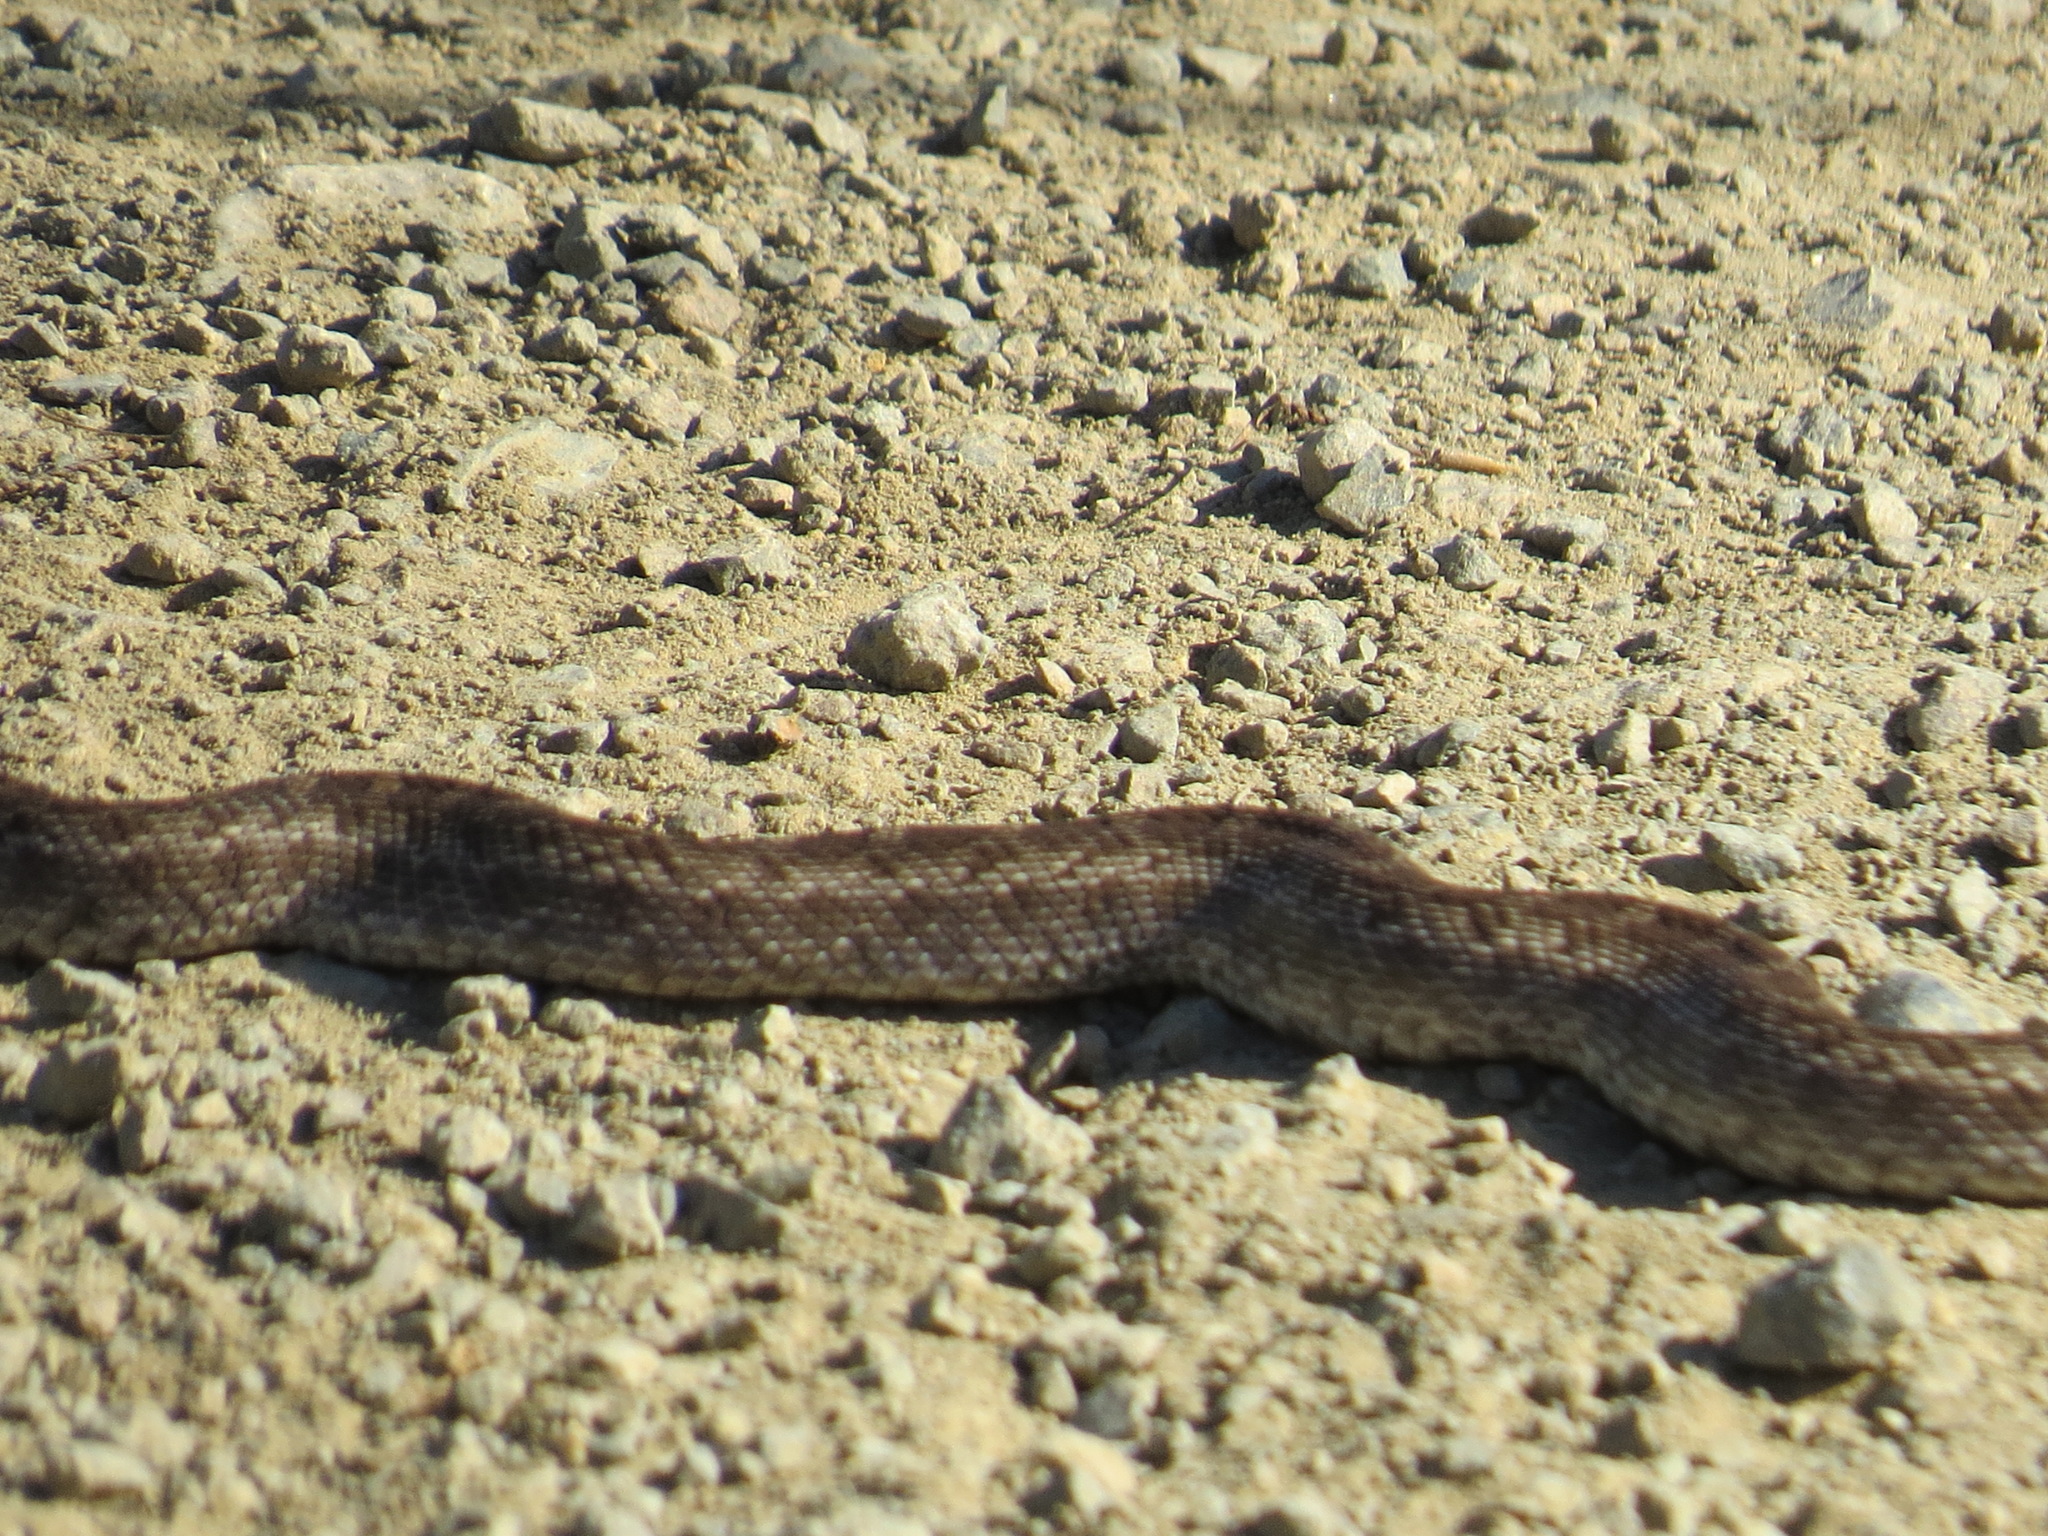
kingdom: Animalia
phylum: Chordata
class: Squamata
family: Colubridae
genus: Pituophis
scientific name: Pituophis catenifer
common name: Gopher snake
